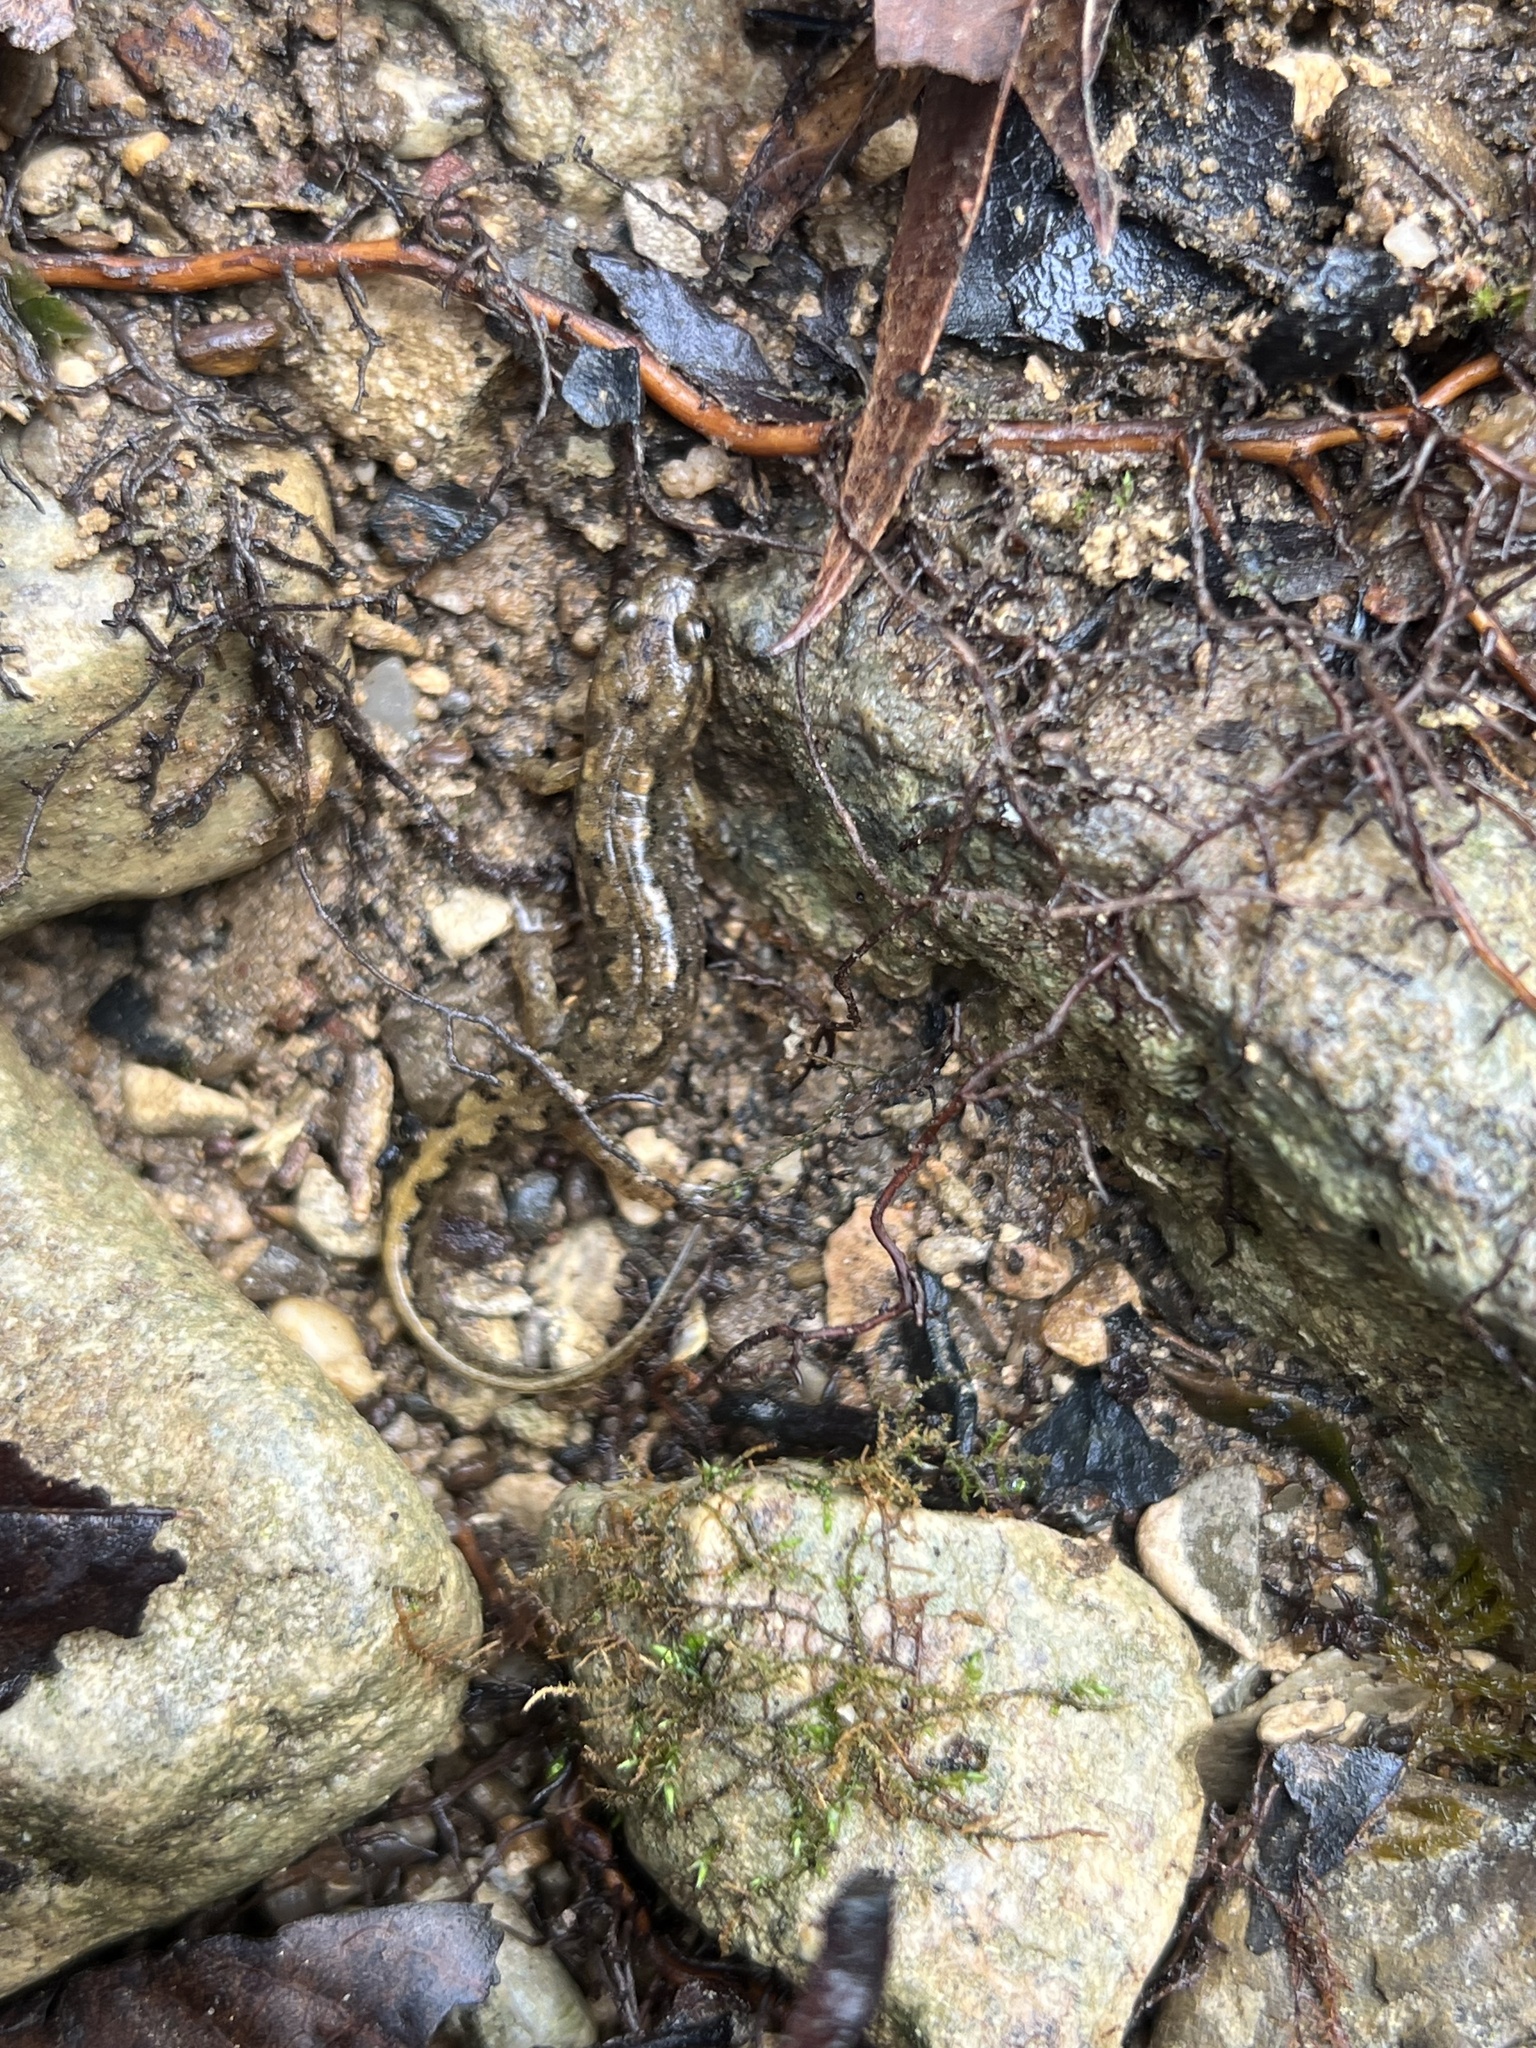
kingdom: Animalia
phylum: Chordata
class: Amphibia
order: Caudata
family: Plethodontidae
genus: Desmognathus
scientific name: Desmognathus conanti
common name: Spotted dusky salamander
